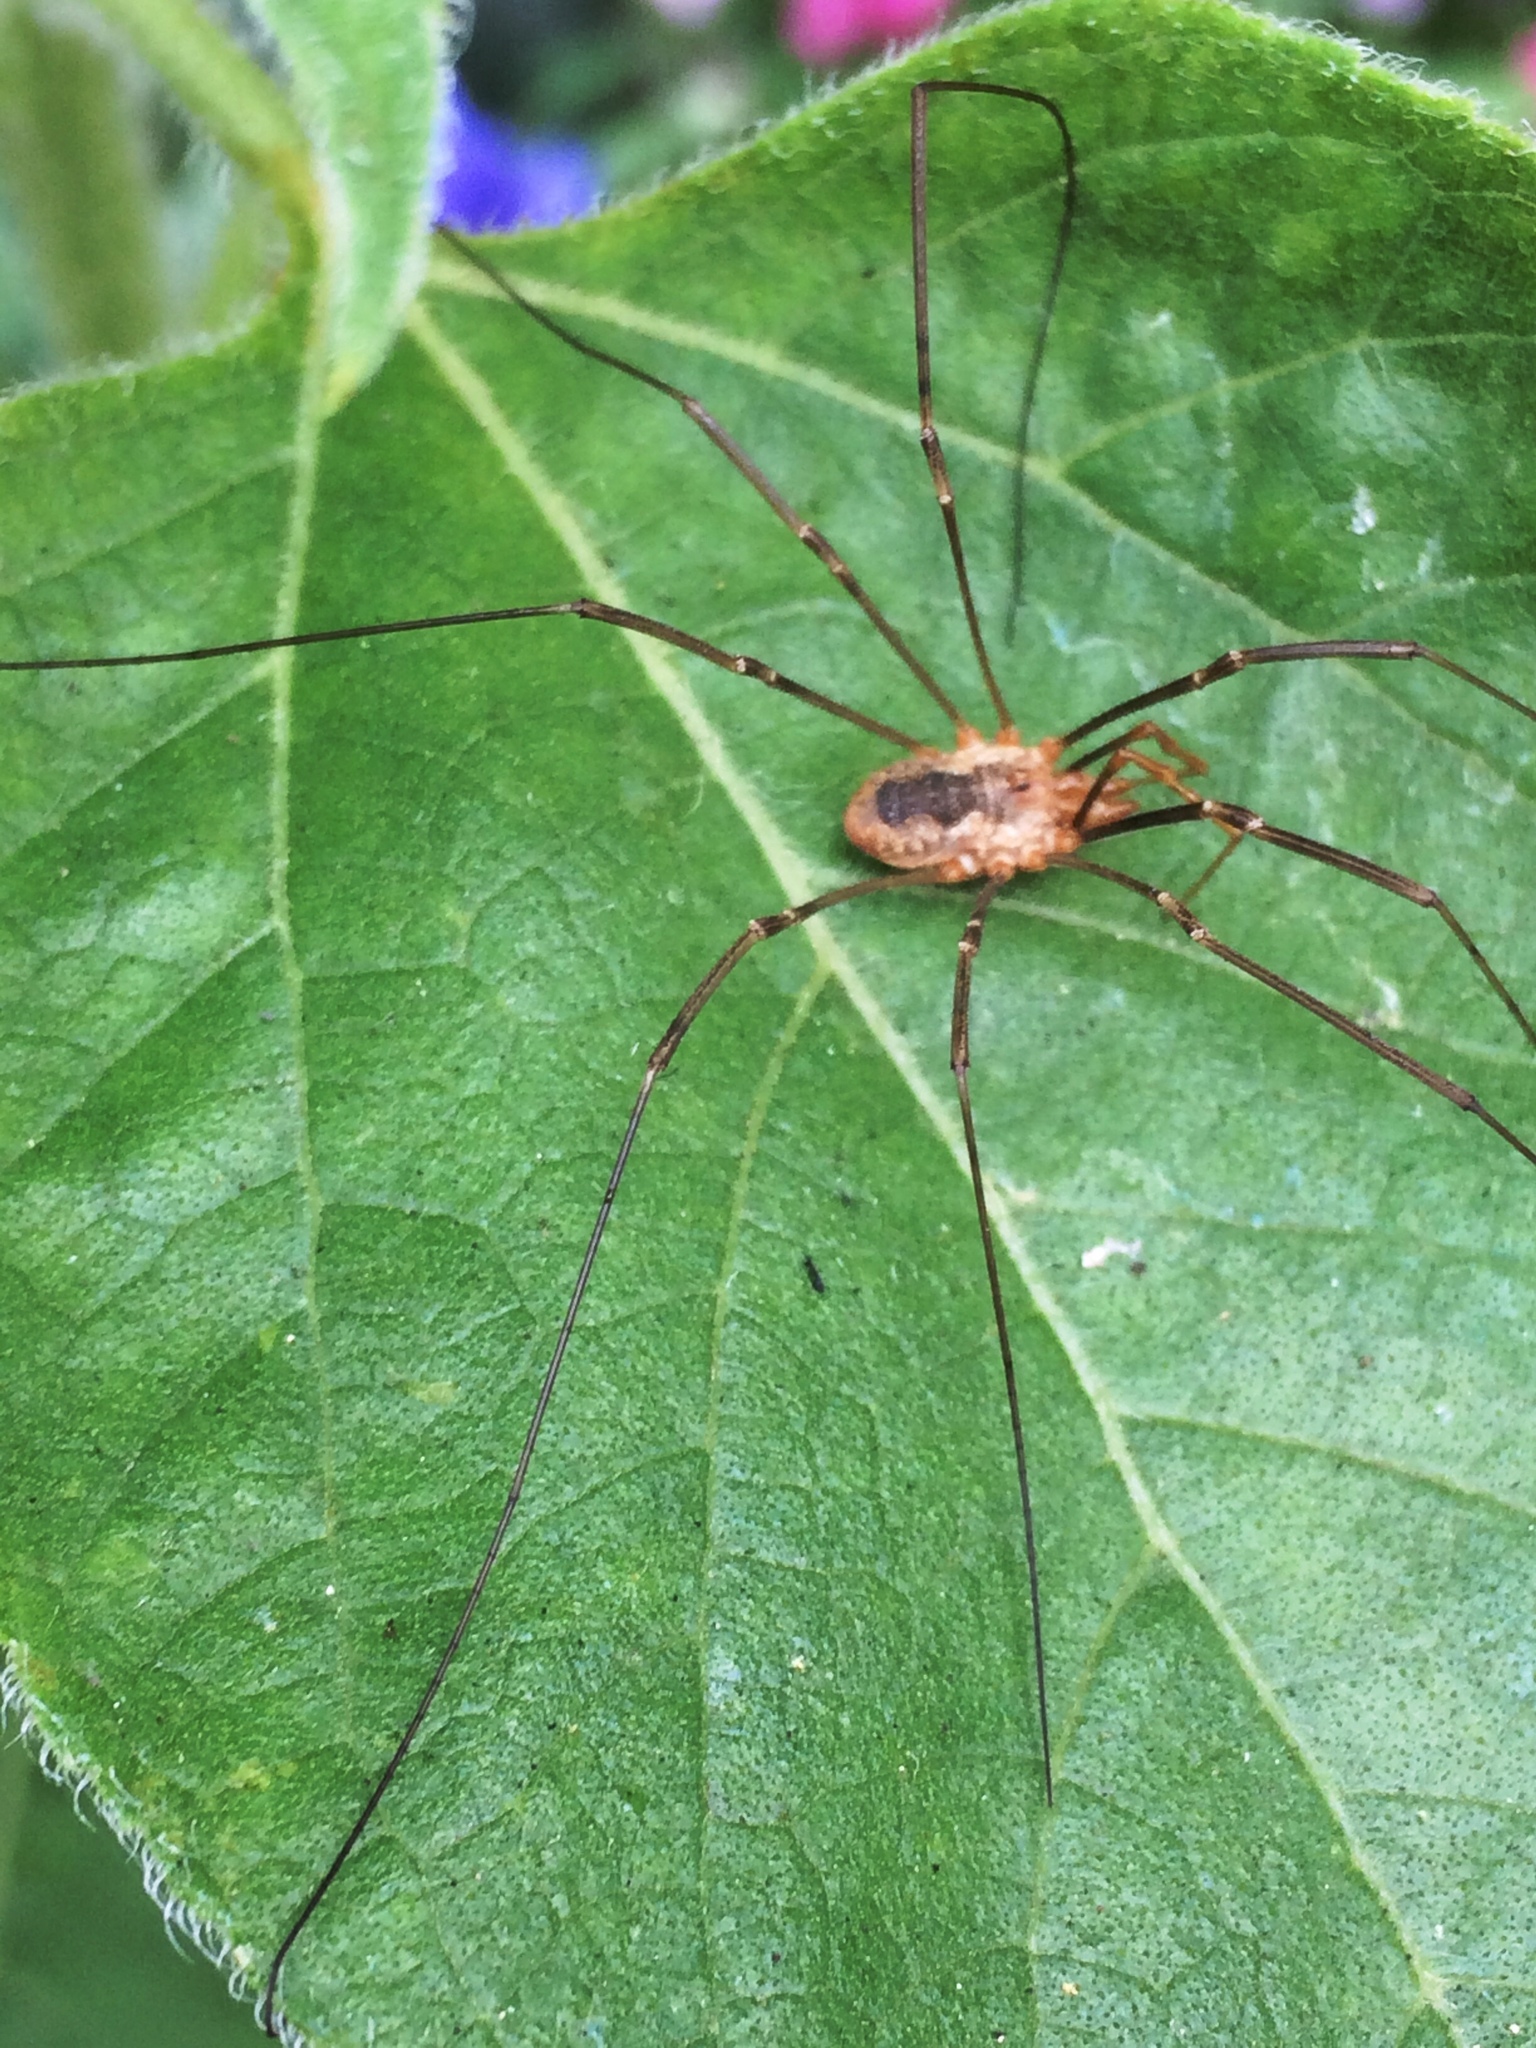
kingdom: Animalia
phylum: Arthropoda
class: Arachnida
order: Opiliones
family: Phalangiidae
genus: Phalangium
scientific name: Phalangium opilio
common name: Daddy longleg
